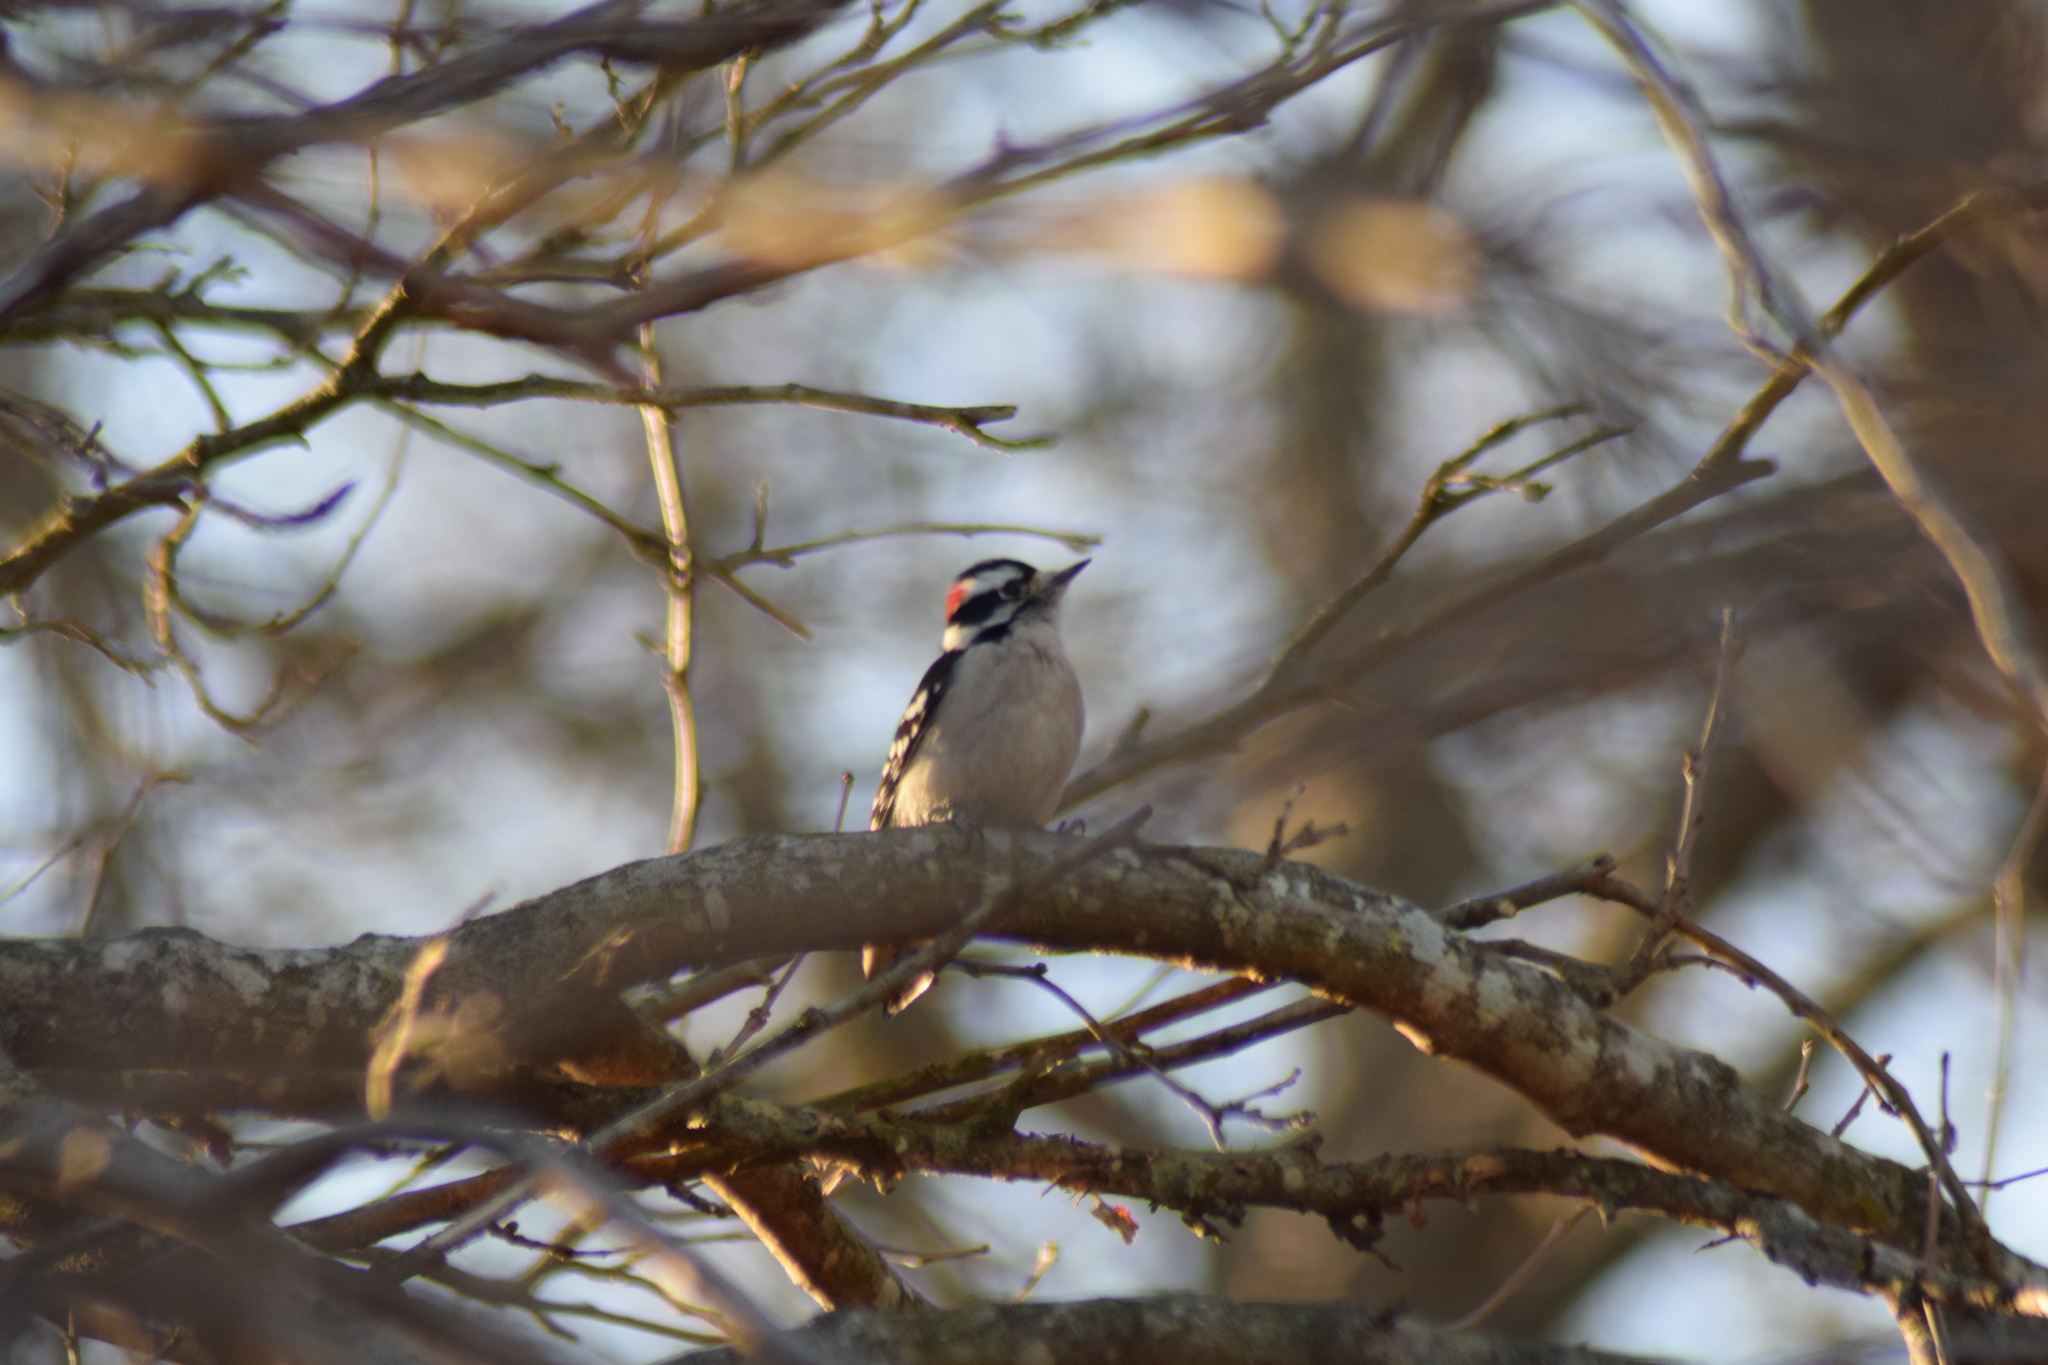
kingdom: Animalia
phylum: Chordata
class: Aves
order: Piciformes
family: Picidae
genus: Dryobates
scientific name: Dryobates pubescens
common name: Downy woodpecker
